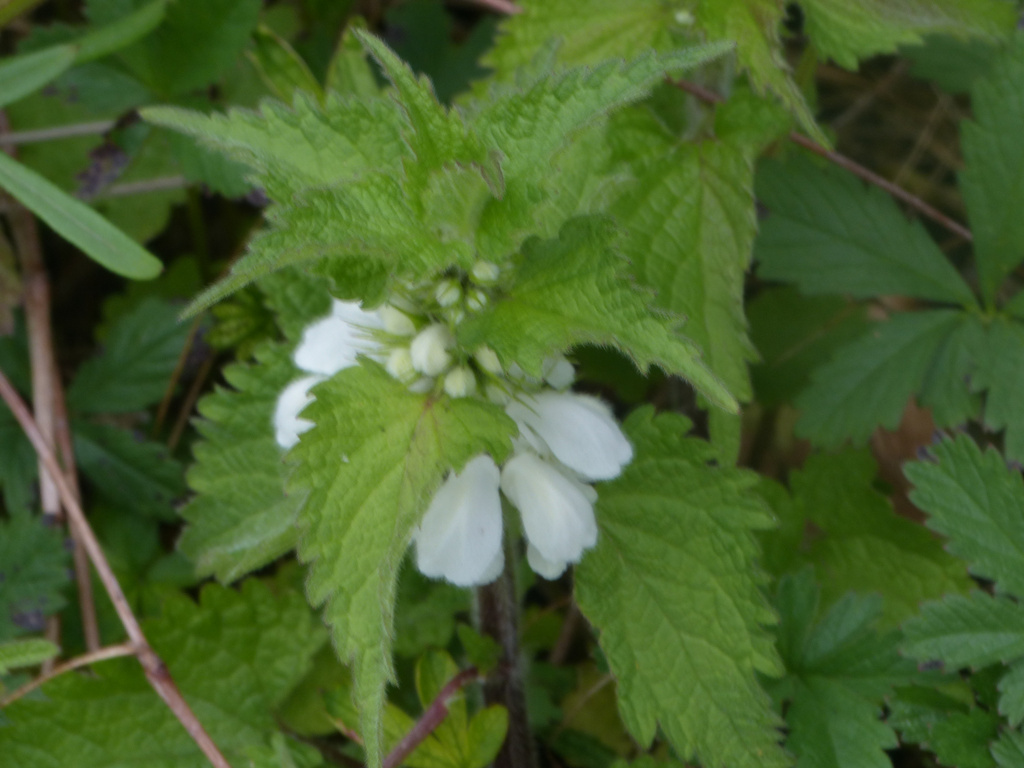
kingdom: Plantae
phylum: Tracheophyta
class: Magnoliopsida
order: Lamiales
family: Lamiaceae
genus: Lamium
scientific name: Lamium album
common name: White dead-nettle
